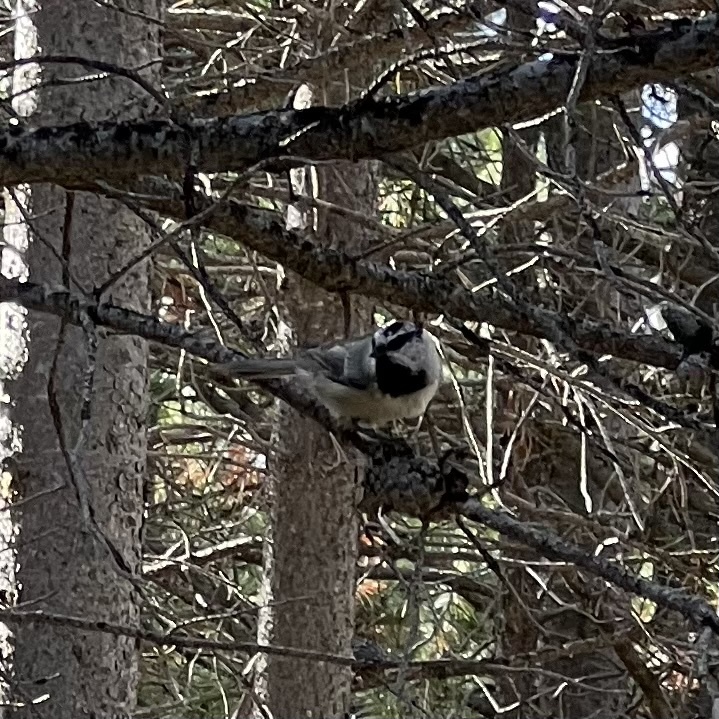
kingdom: Animalia
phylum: Chordata
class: Aves
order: Passeriformes
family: Paridae
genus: Poecile
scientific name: Poecile gambeli
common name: Mountain chickadee
